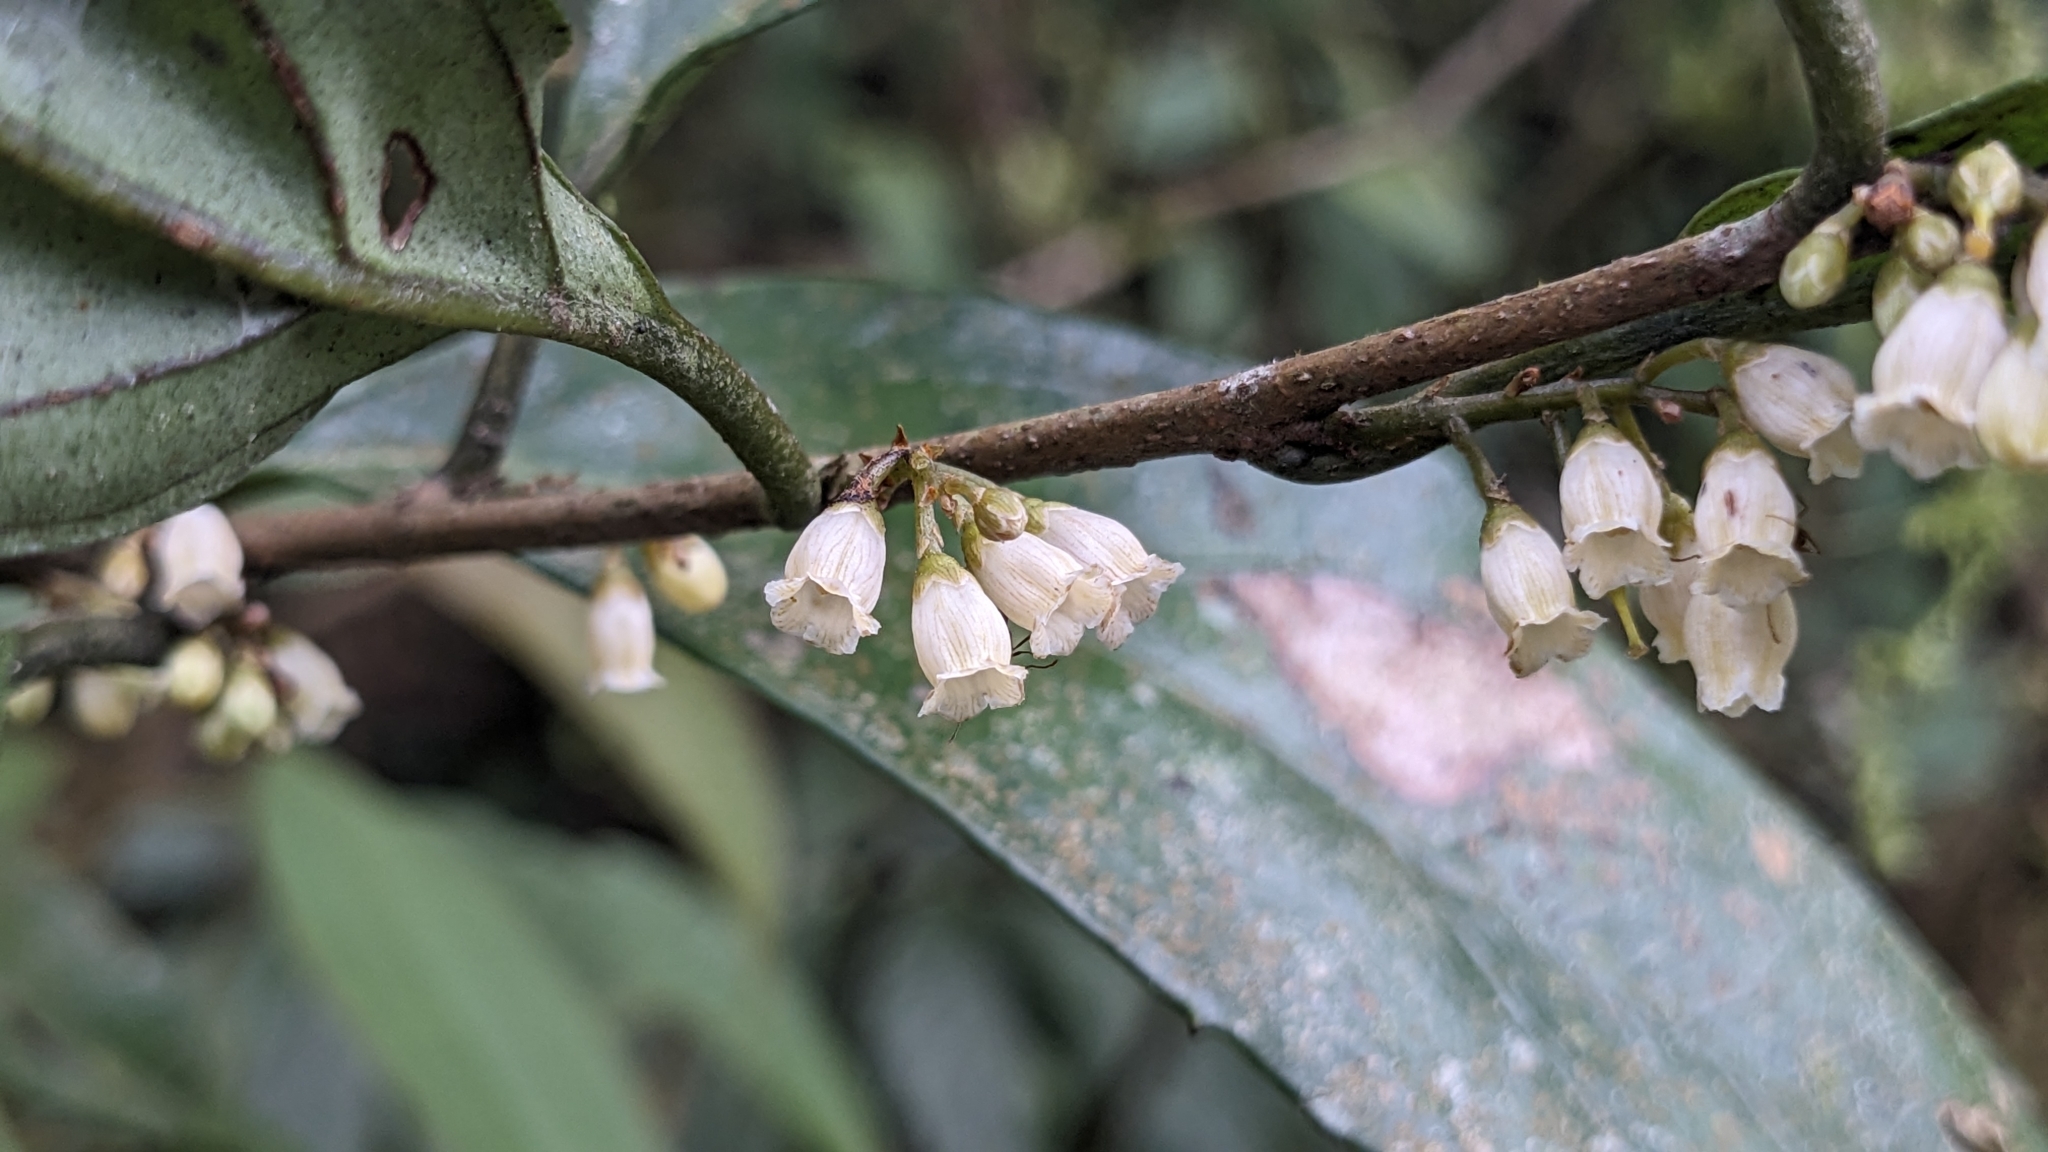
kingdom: Plantae
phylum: Tracheophyta
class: Magnoliopsida
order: Ericales
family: Primulaceae
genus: Maesa
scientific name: Maesa japonica
